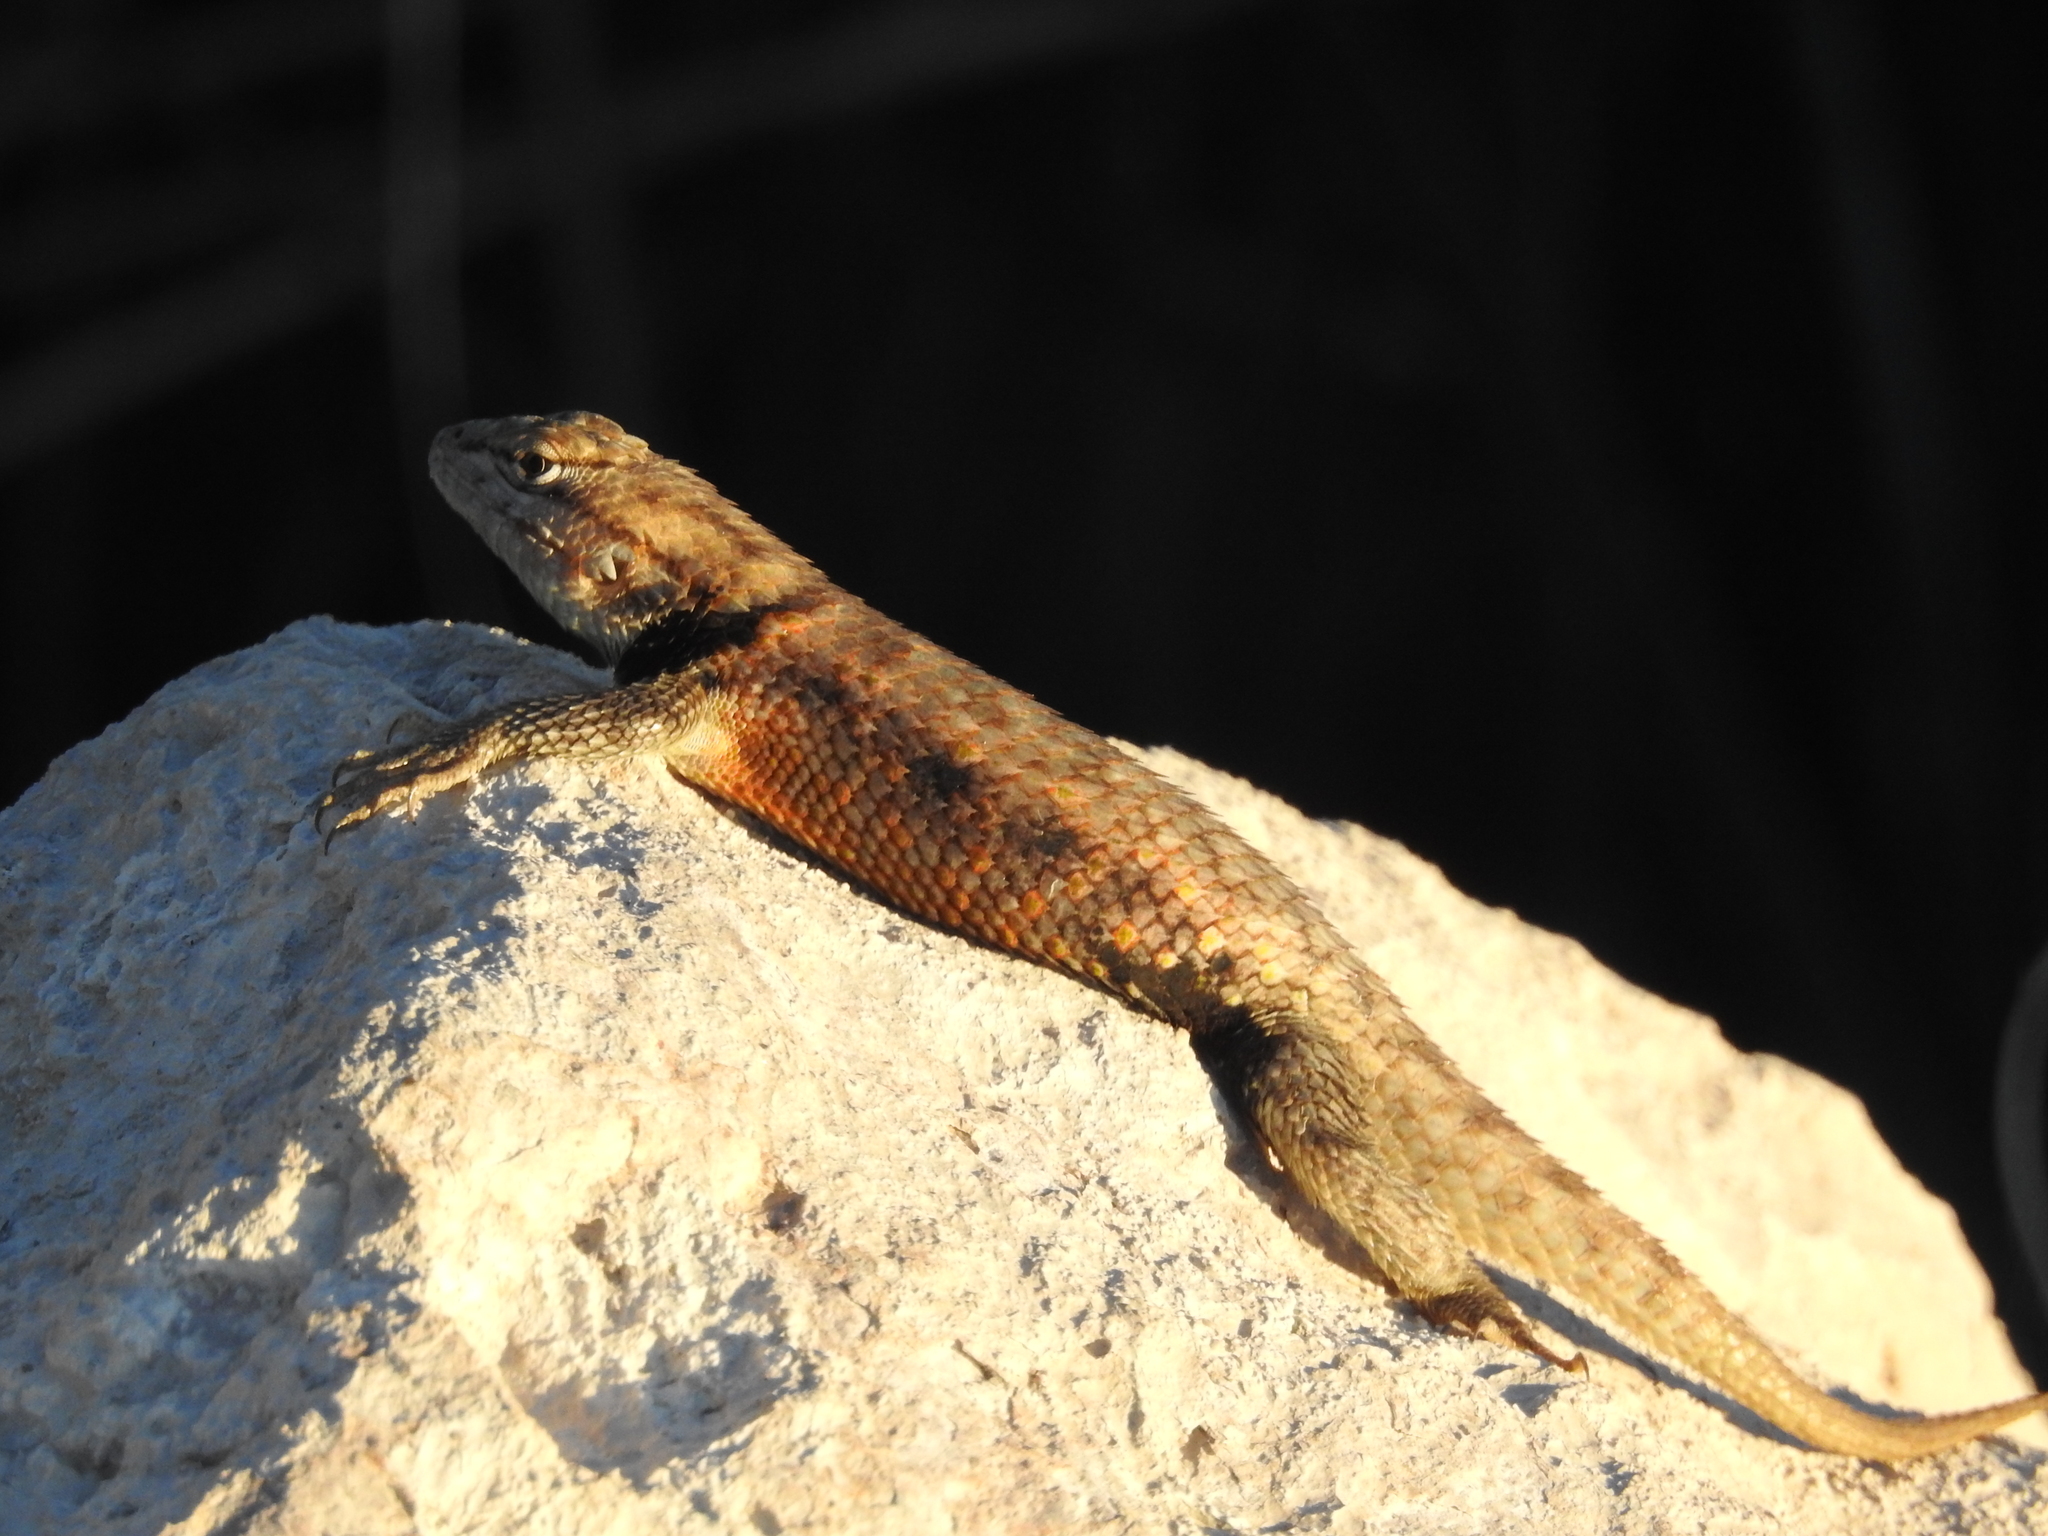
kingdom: Animalia
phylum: Chordata
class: Squamata
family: Phrynosomatidae
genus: Sceloporus
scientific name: Sceloporus uniformis
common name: Yellow-backed spiny lizard
